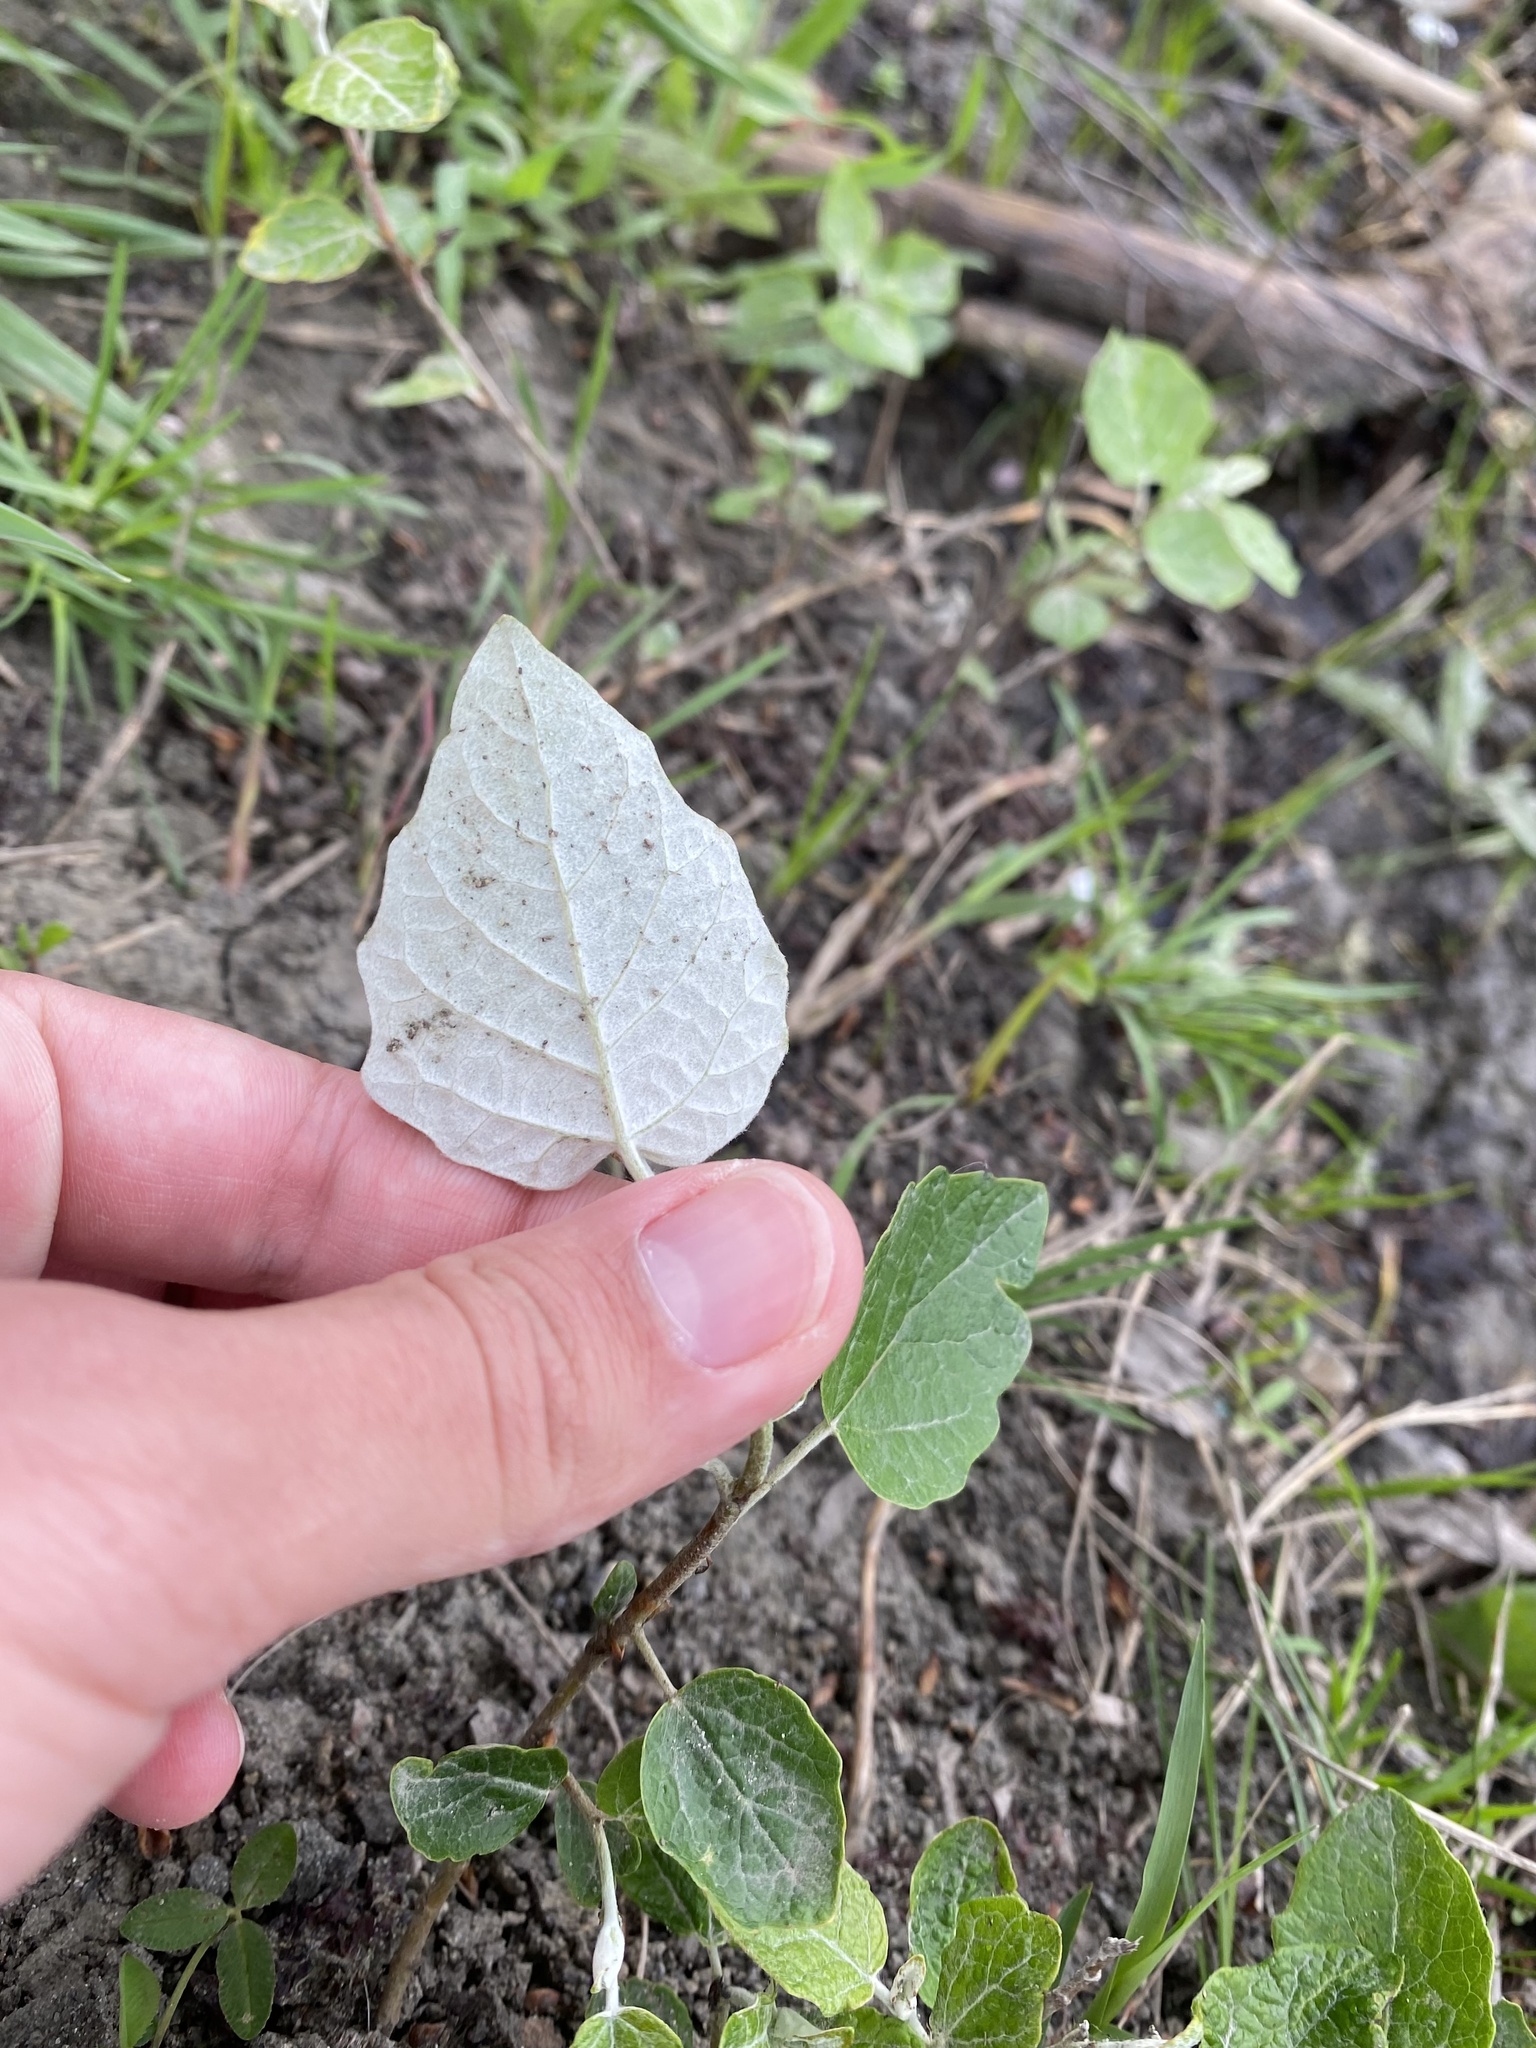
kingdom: Plantae
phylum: Tracheophyta
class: Magnoliopsida
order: Malpighiales
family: Salicaceae
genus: Populus
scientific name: Populus alba
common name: White poplar
